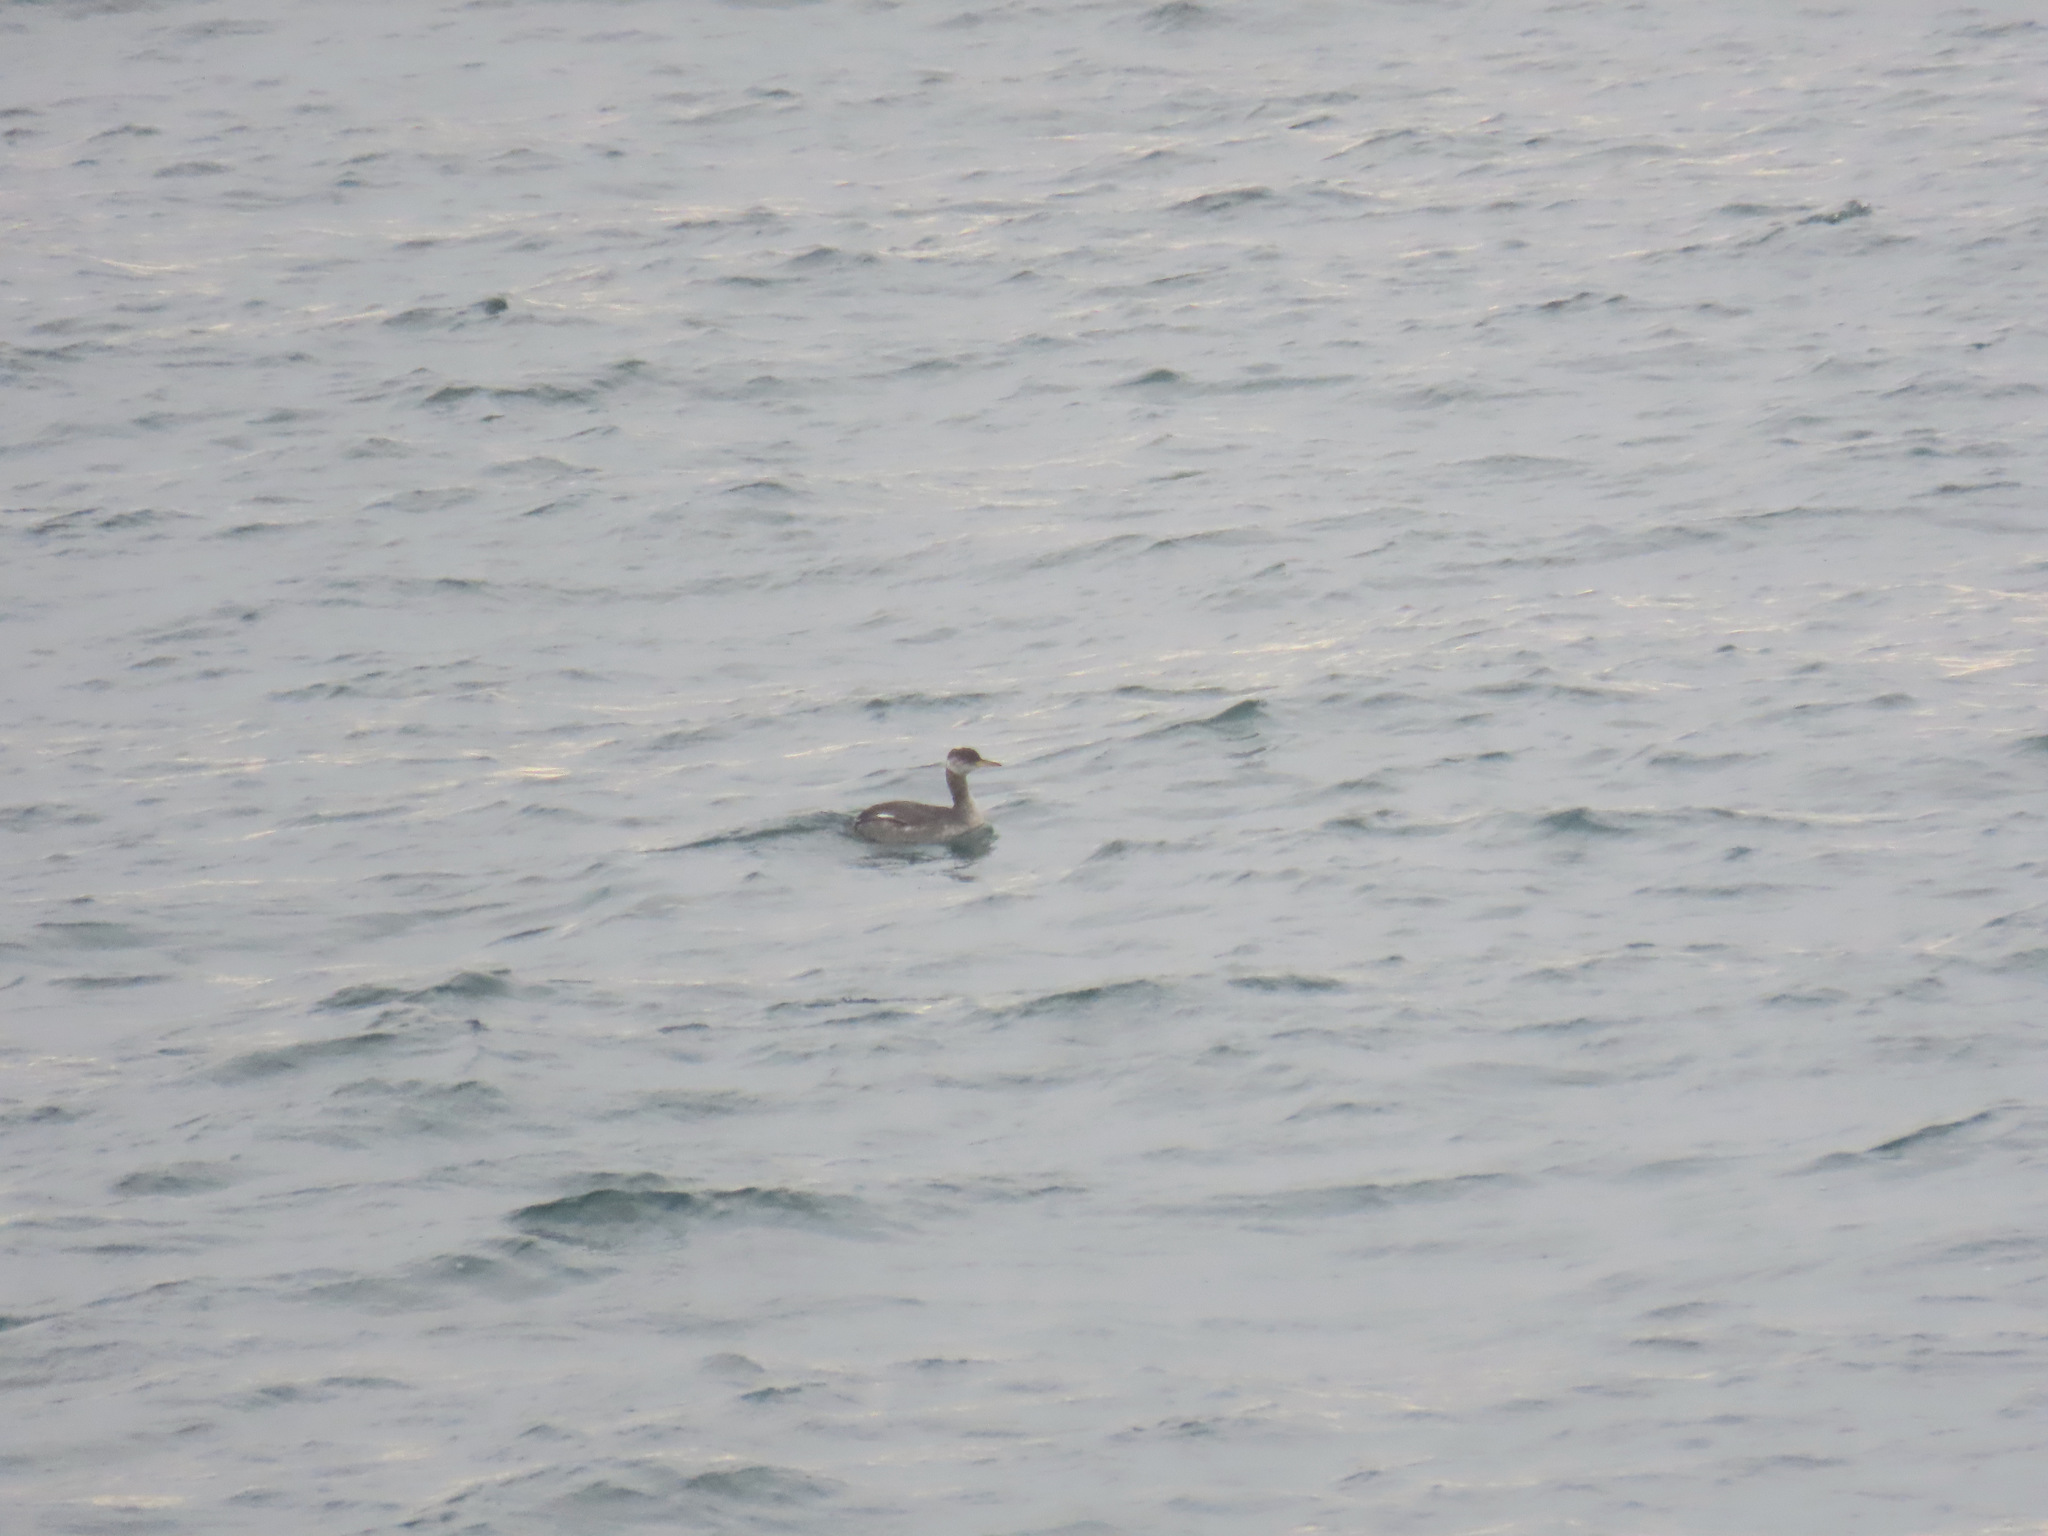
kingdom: Animalia
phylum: Chordata
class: Aves
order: Podicipediformes
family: Podicipedidae
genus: Podiceps
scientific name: Podiceps grisegena
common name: Red-necked grebe
